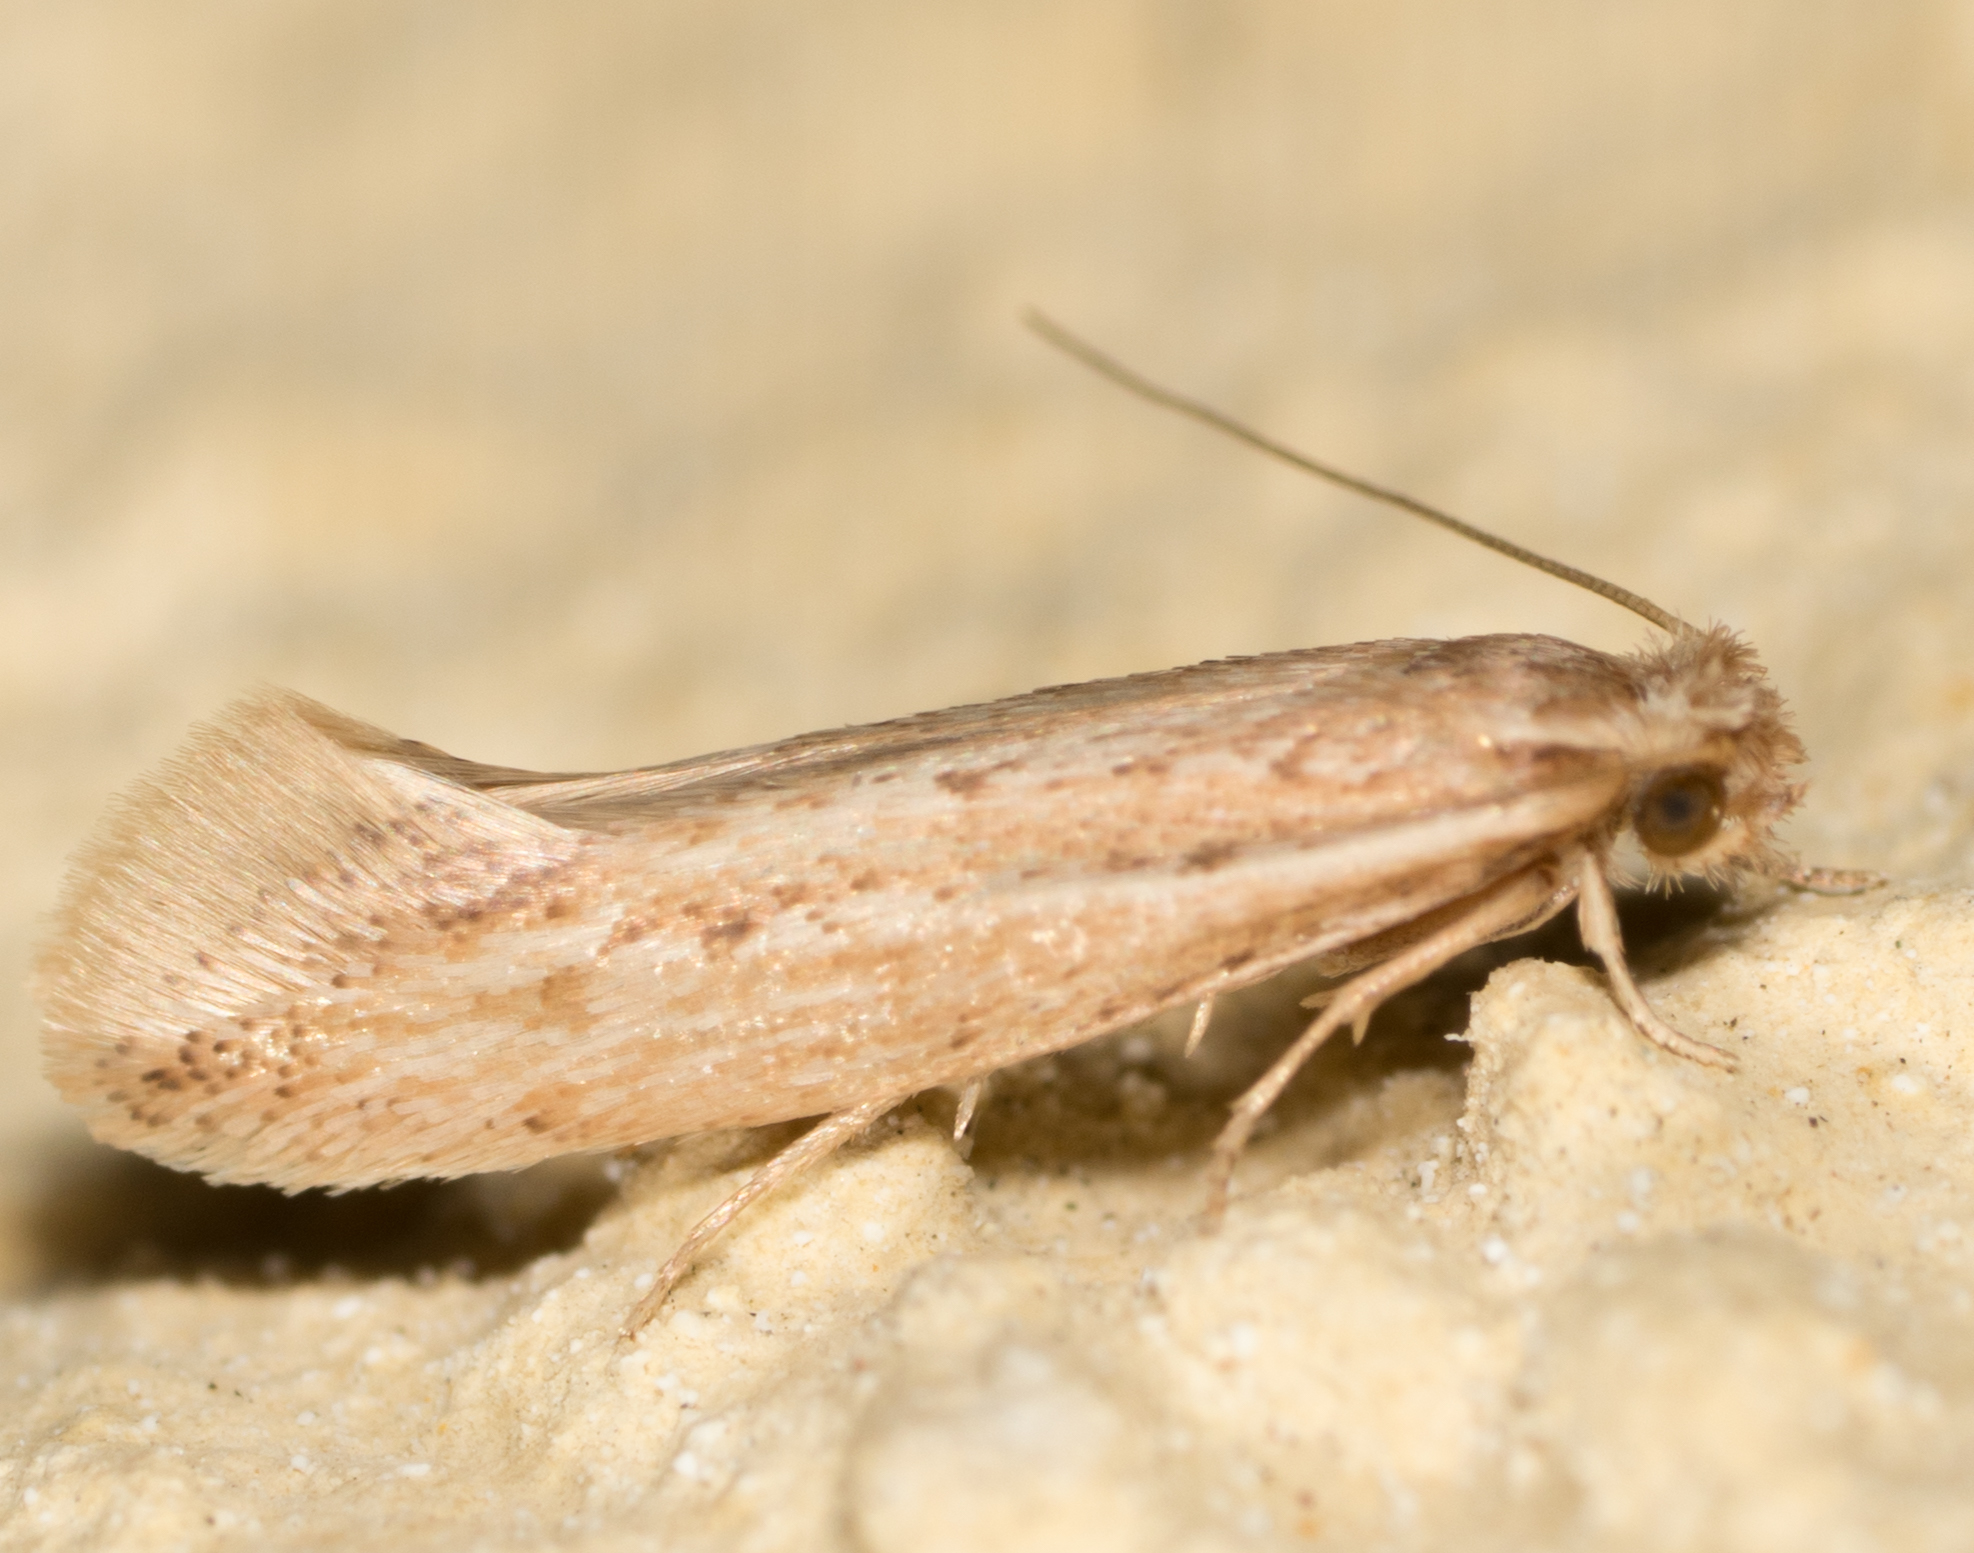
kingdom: Animalia
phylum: Arthropoda
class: Insecta
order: Lepidoptera
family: Ypsolophidae
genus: Ypsolopha
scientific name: Ypsolopha
